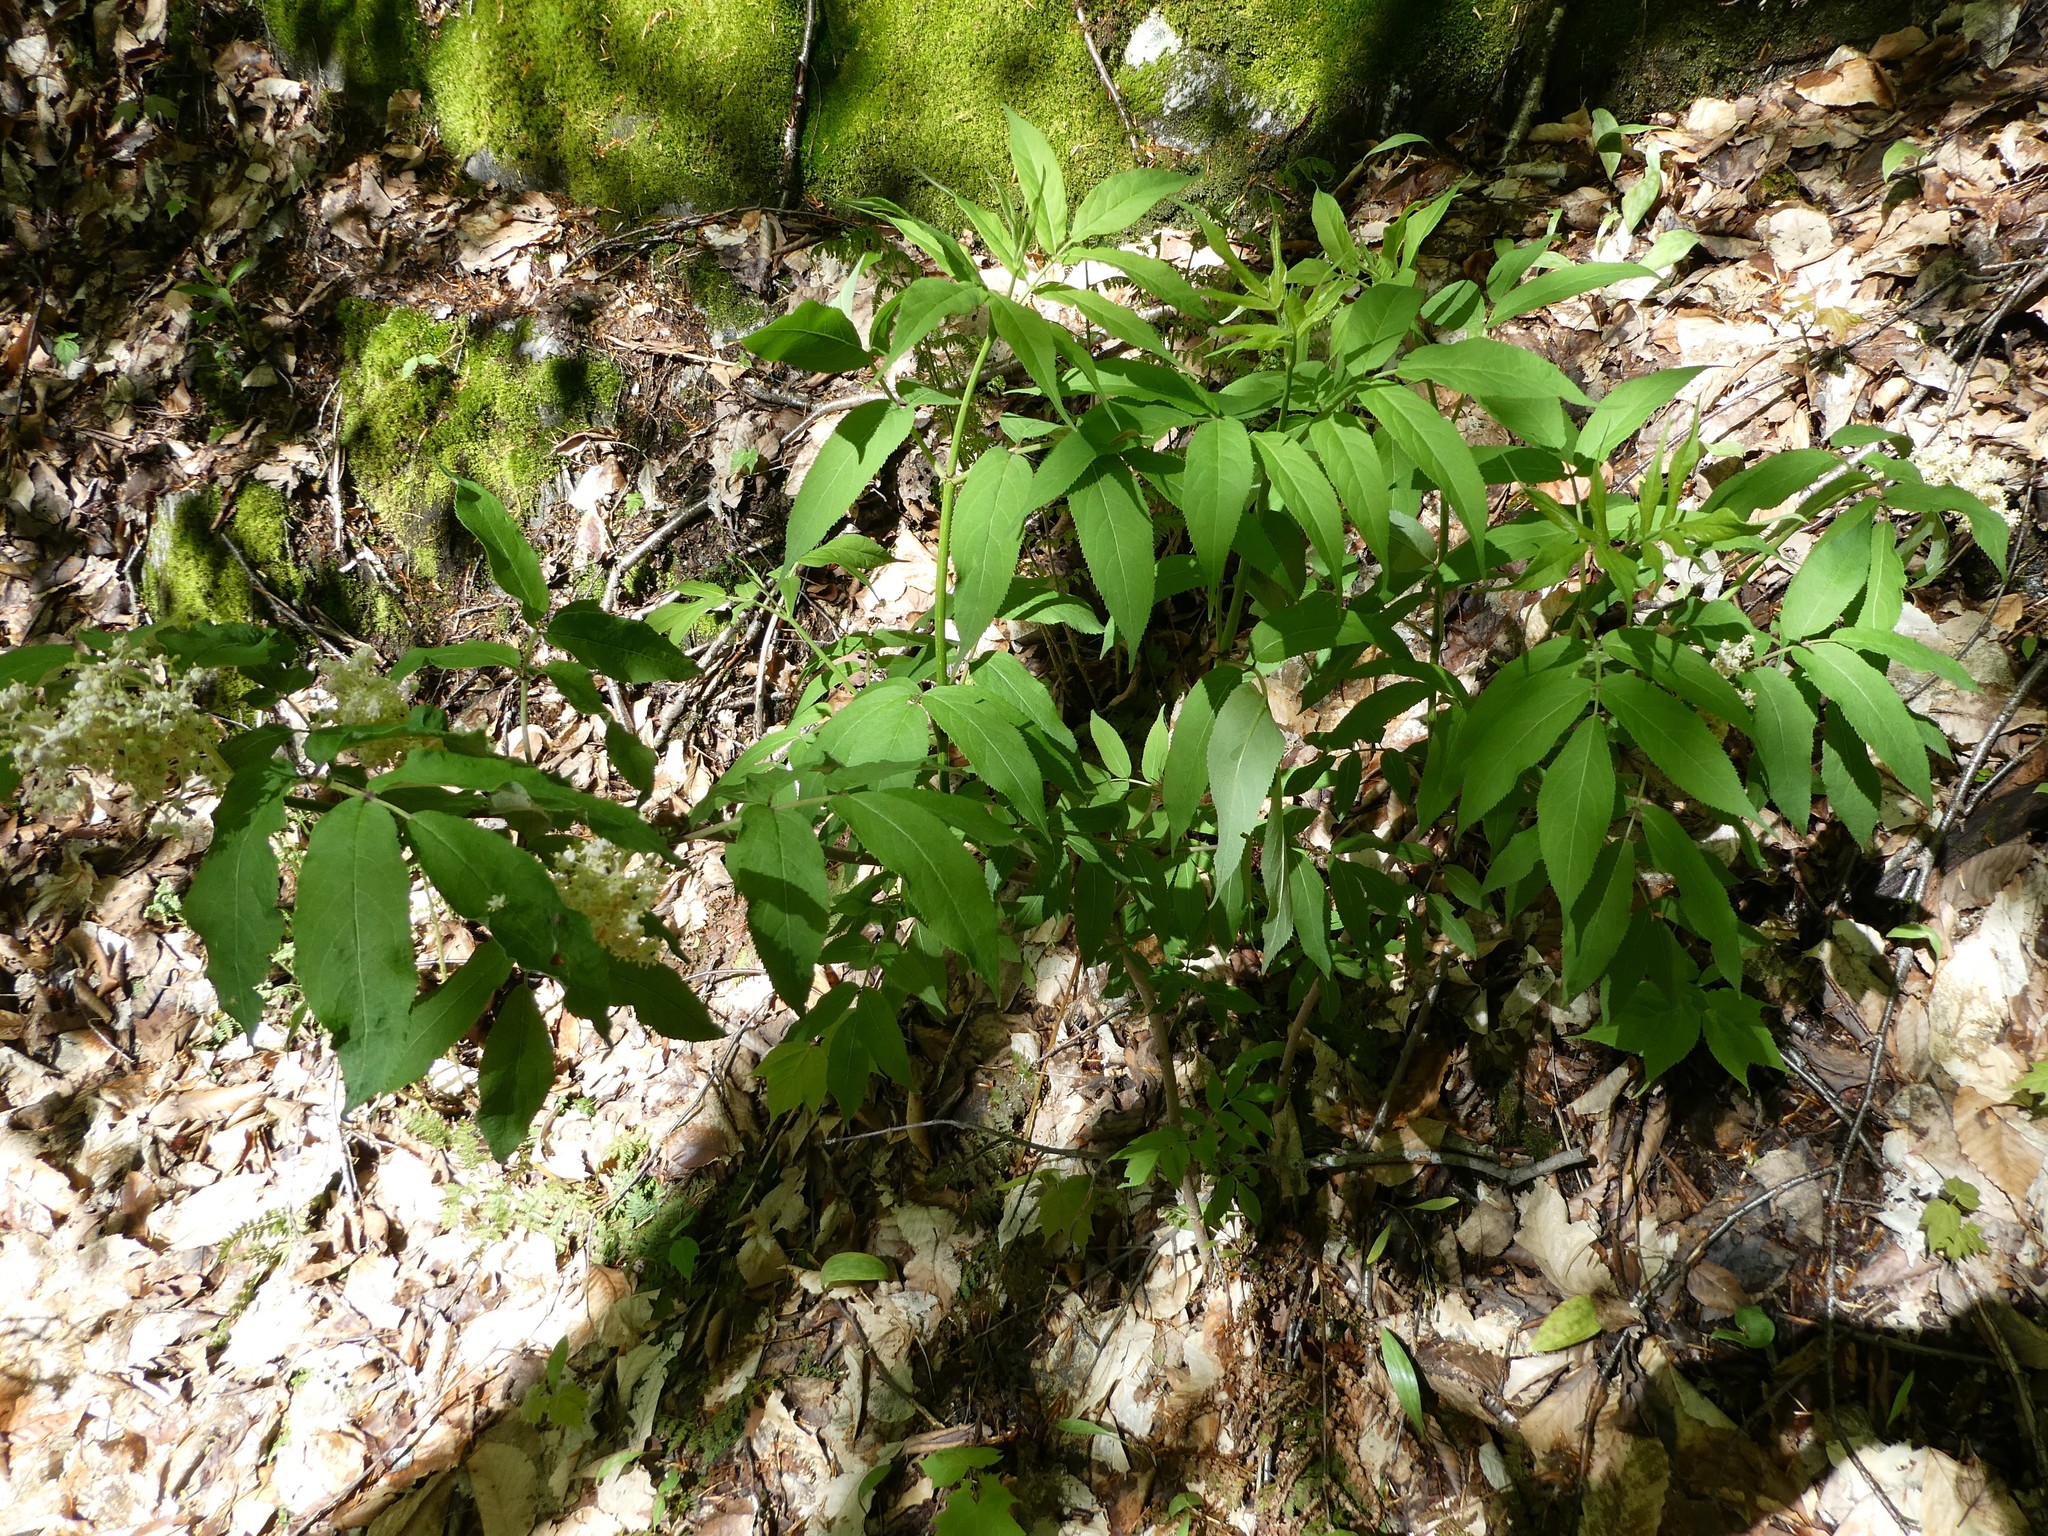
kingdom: Plantae
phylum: Tracheophyta
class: Magnoliopsida
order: Dipsacales
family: Viburnaceae
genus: Sambucus
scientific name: Sambucus racemosa
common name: Red-berried elder
